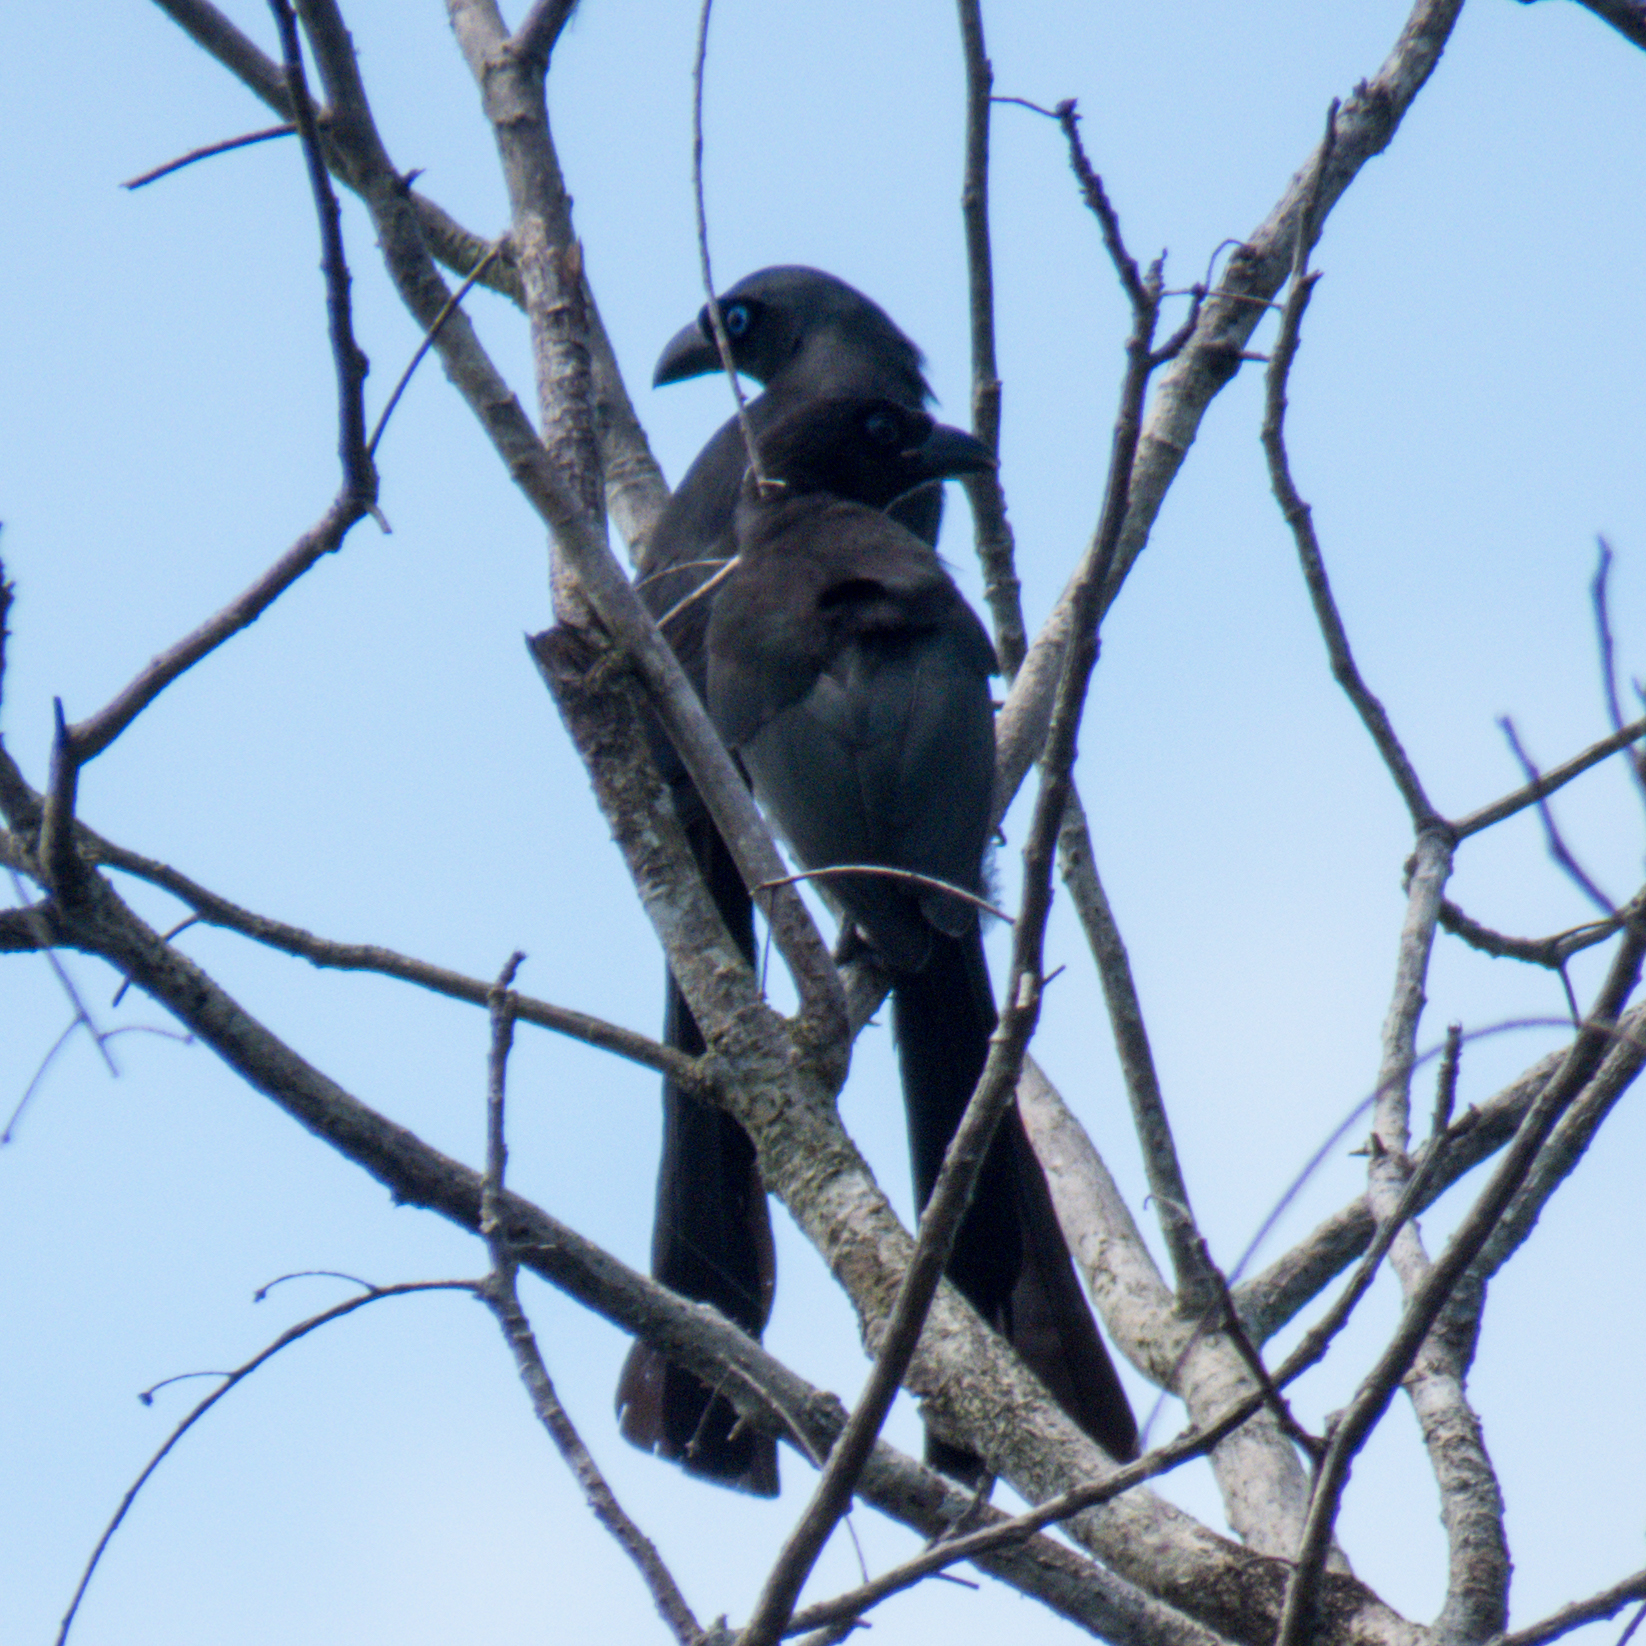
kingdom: Animalia
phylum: Chordata
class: Aves
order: Passeriformes
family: Corvidae
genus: Crypsirina
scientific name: Crypsirina temia
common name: Racket-tailed treepie
